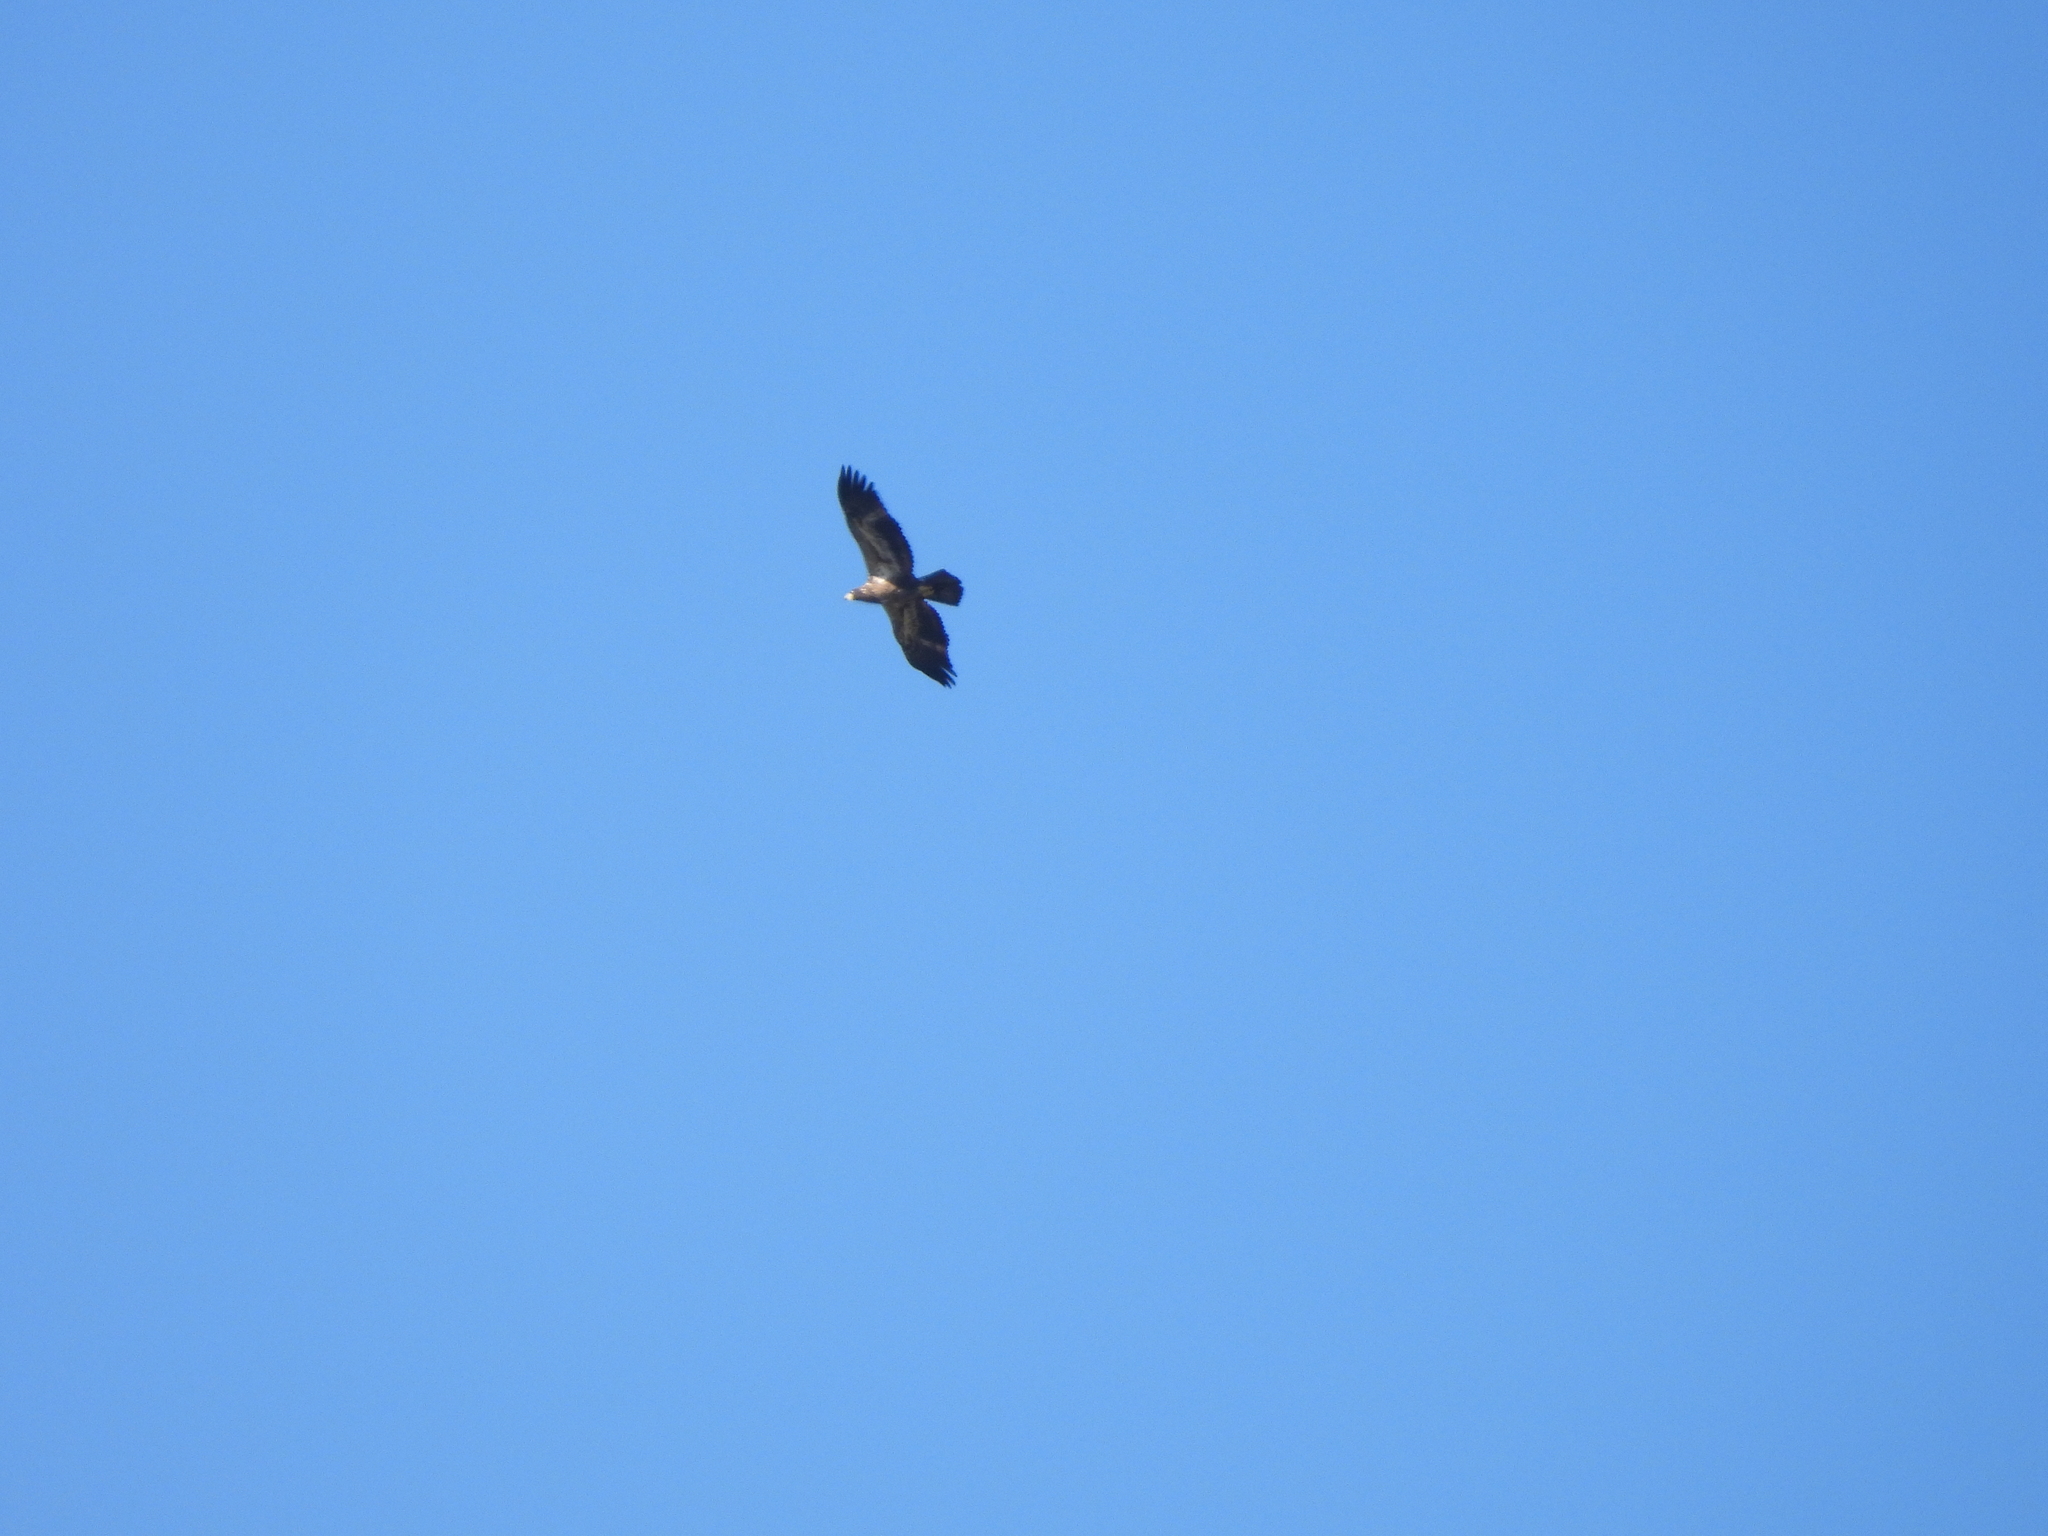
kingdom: Animalia
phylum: Chordata
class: Aves
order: Accipitriformes
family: Accipitridae
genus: Haliaeetus
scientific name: Haliaeetus leucocephalus
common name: Bald eagle
